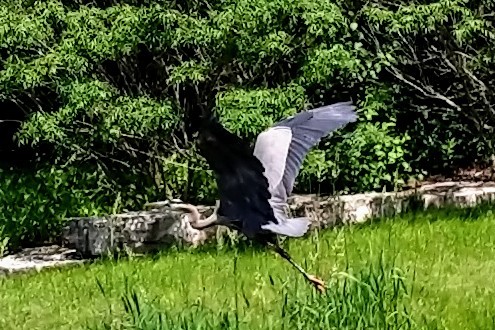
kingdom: Animalia
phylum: Chordata
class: Aves
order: Pelecaniformes
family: Ardeidae
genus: Ardea
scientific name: Ardea herodias
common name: Great blue heron
